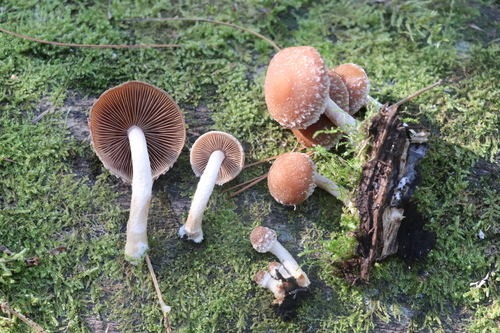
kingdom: Fungi
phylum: Basidiomycota
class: Agaricomycetes
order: Agaricales
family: Psathyrellaceae
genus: Psathyrella
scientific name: Psathyrella
